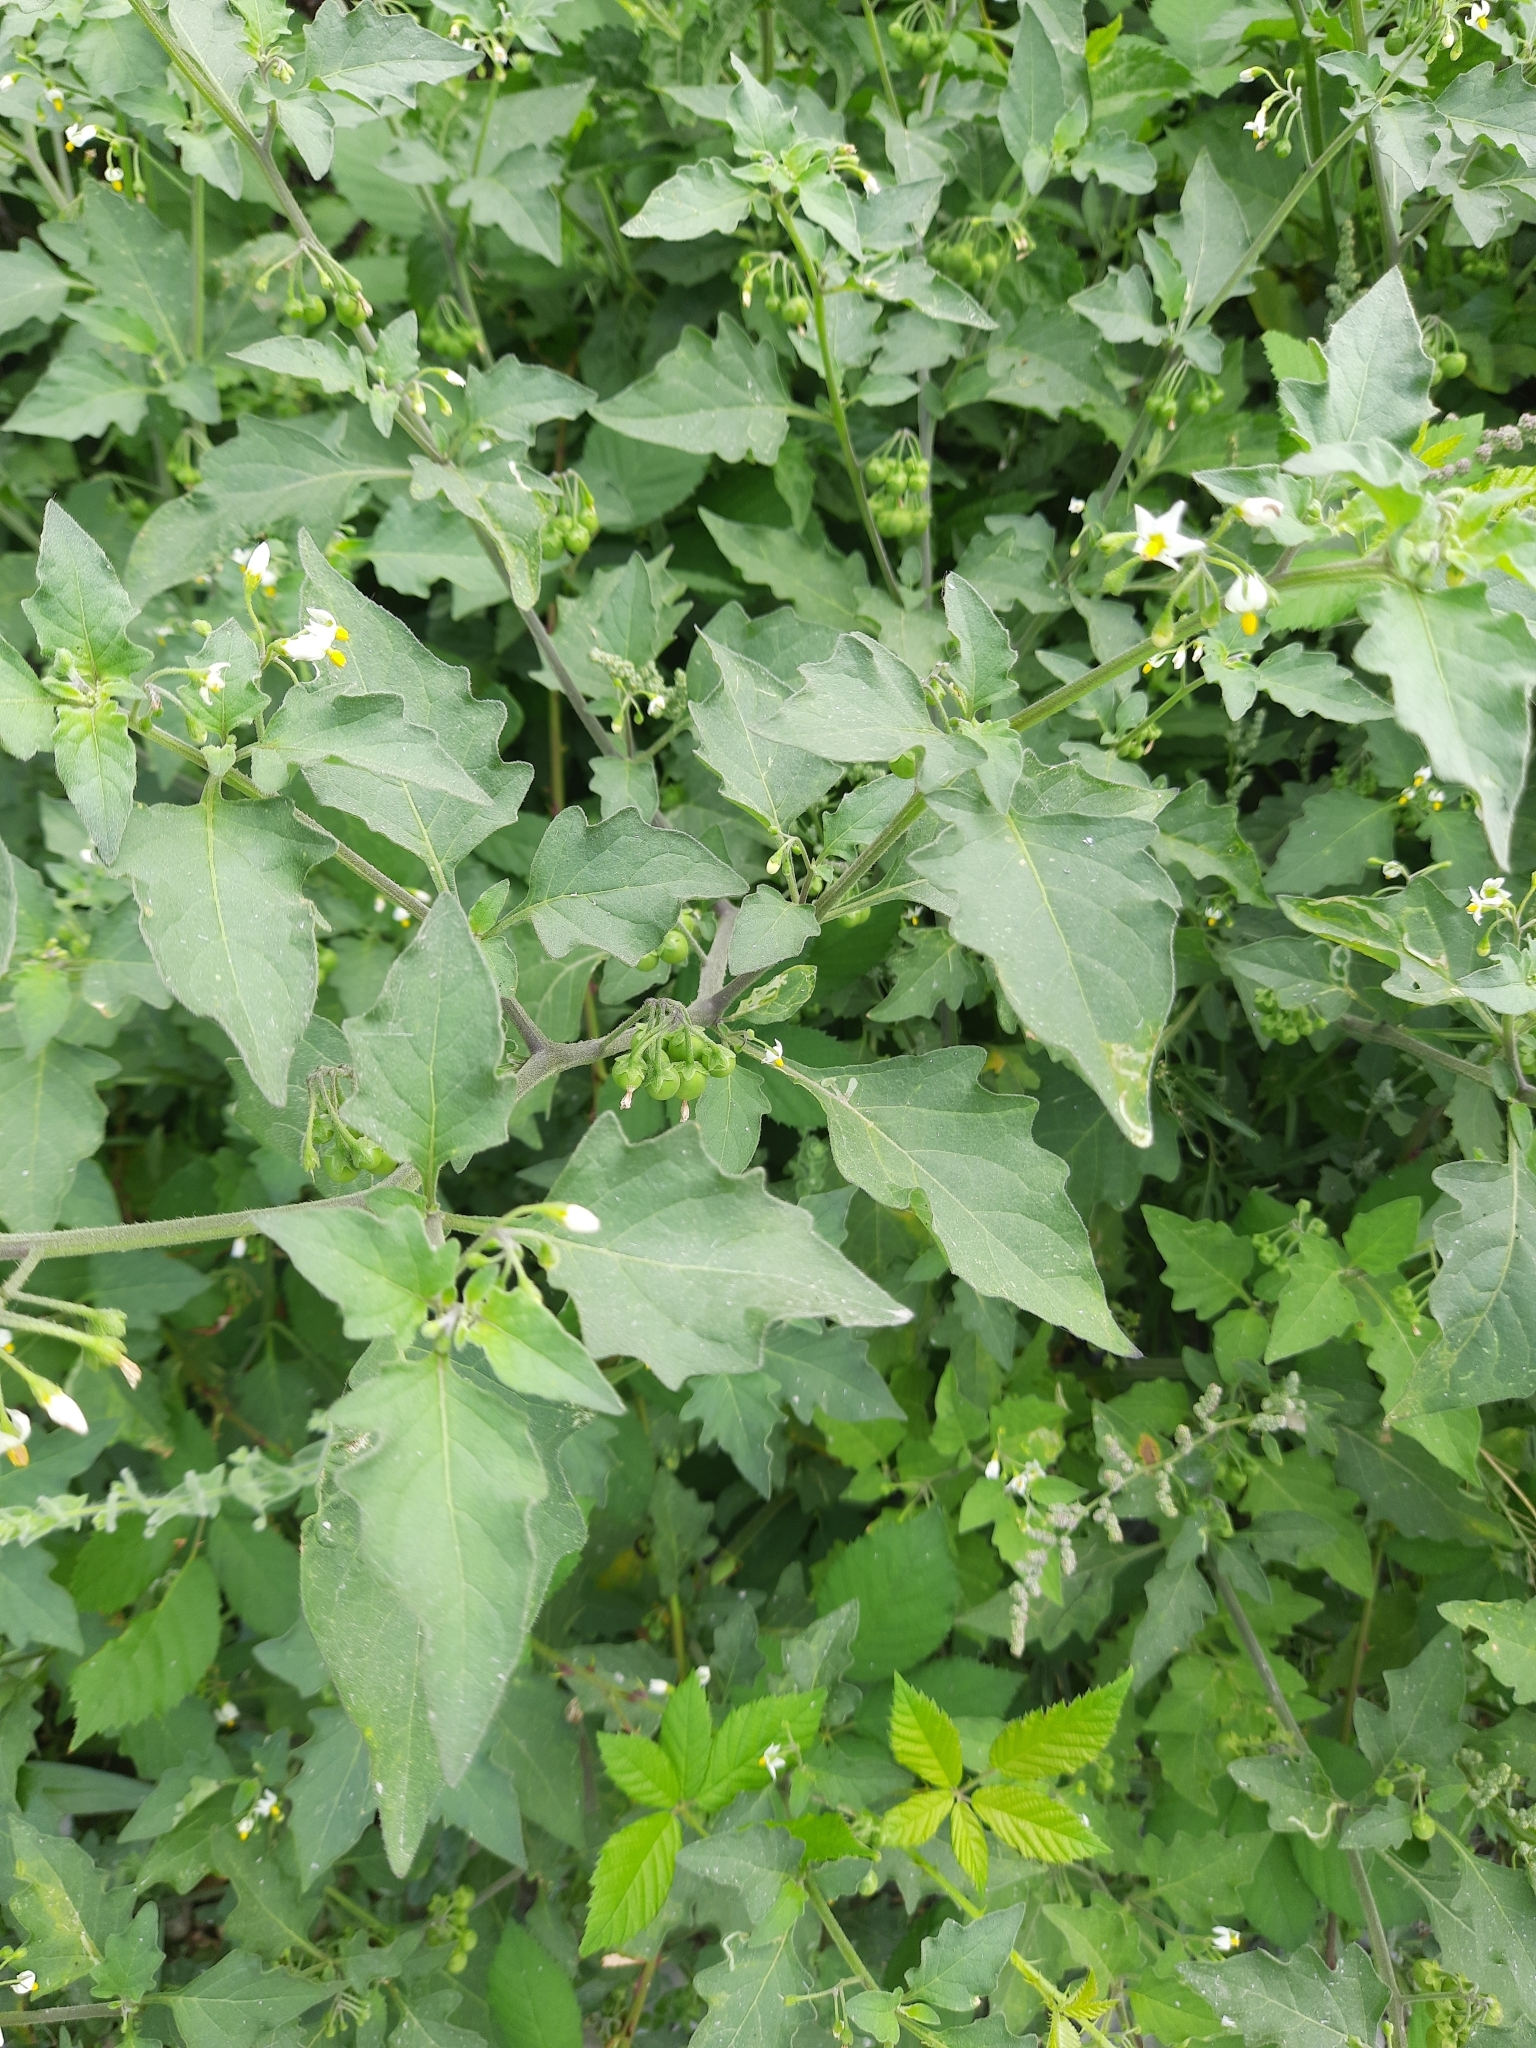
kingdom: Plantae
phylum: Tracheophyta
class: Magnoliopsida
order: Solanales
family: Solanaceae
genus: Solanum
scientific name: Solanum decipiens
